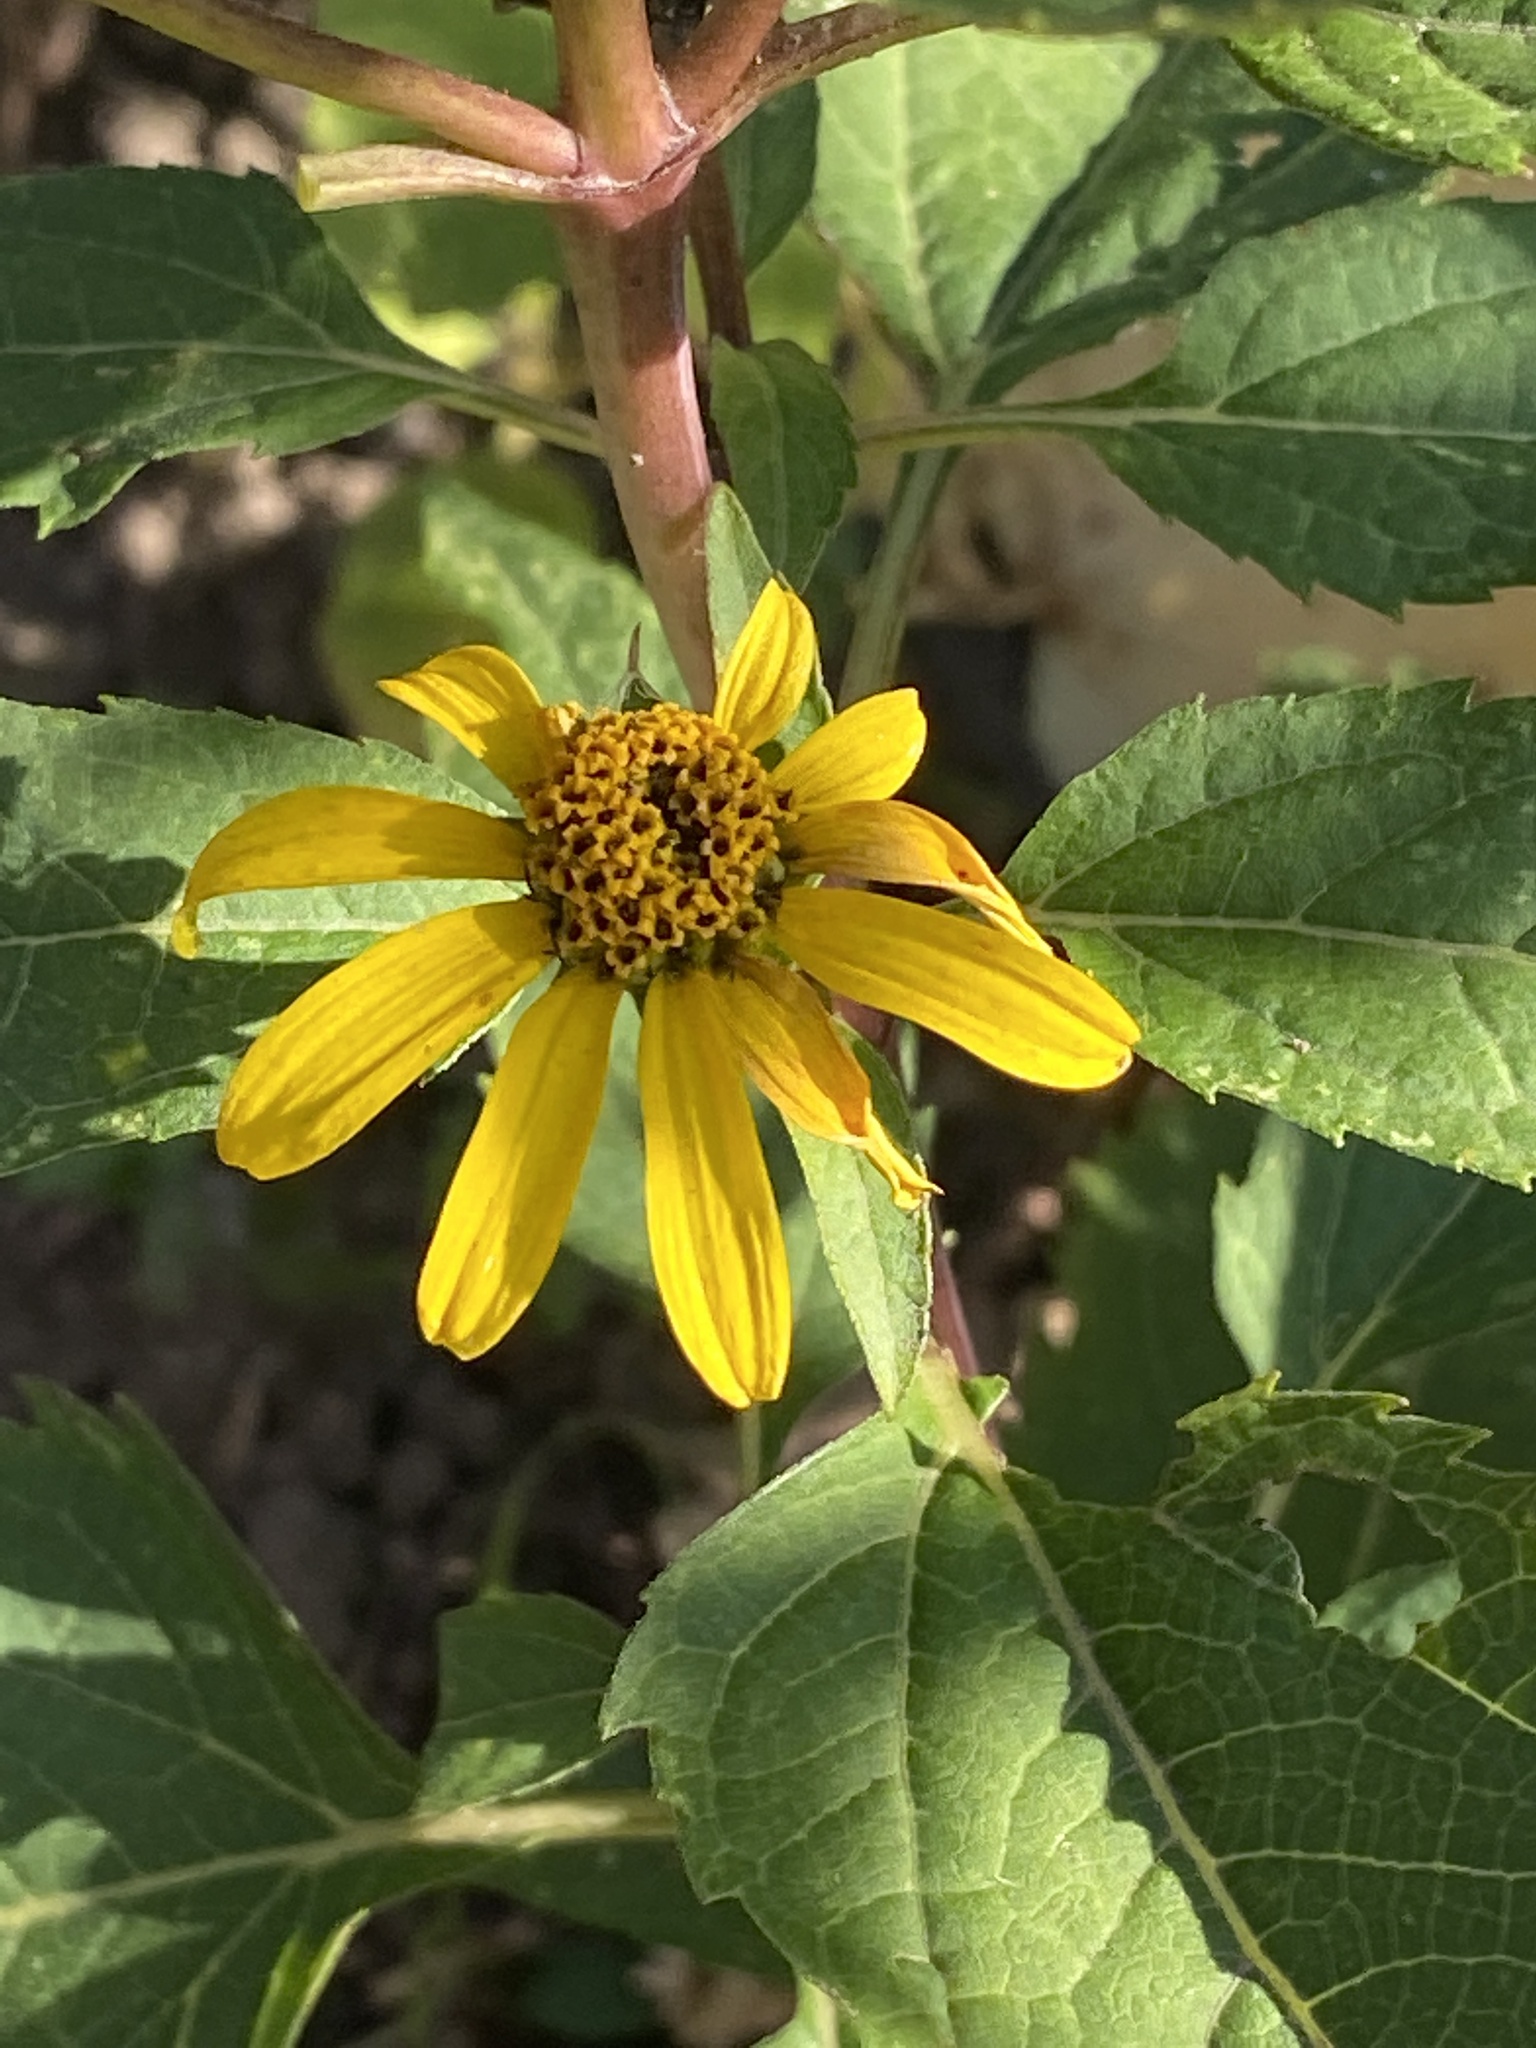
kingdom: Plantae
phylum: Tracheophyta
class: Magnoliopsida
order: Asterales
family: Asteraceae
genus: Heliopsis
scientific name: Heliopsis helianthoides
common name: False sunflower
